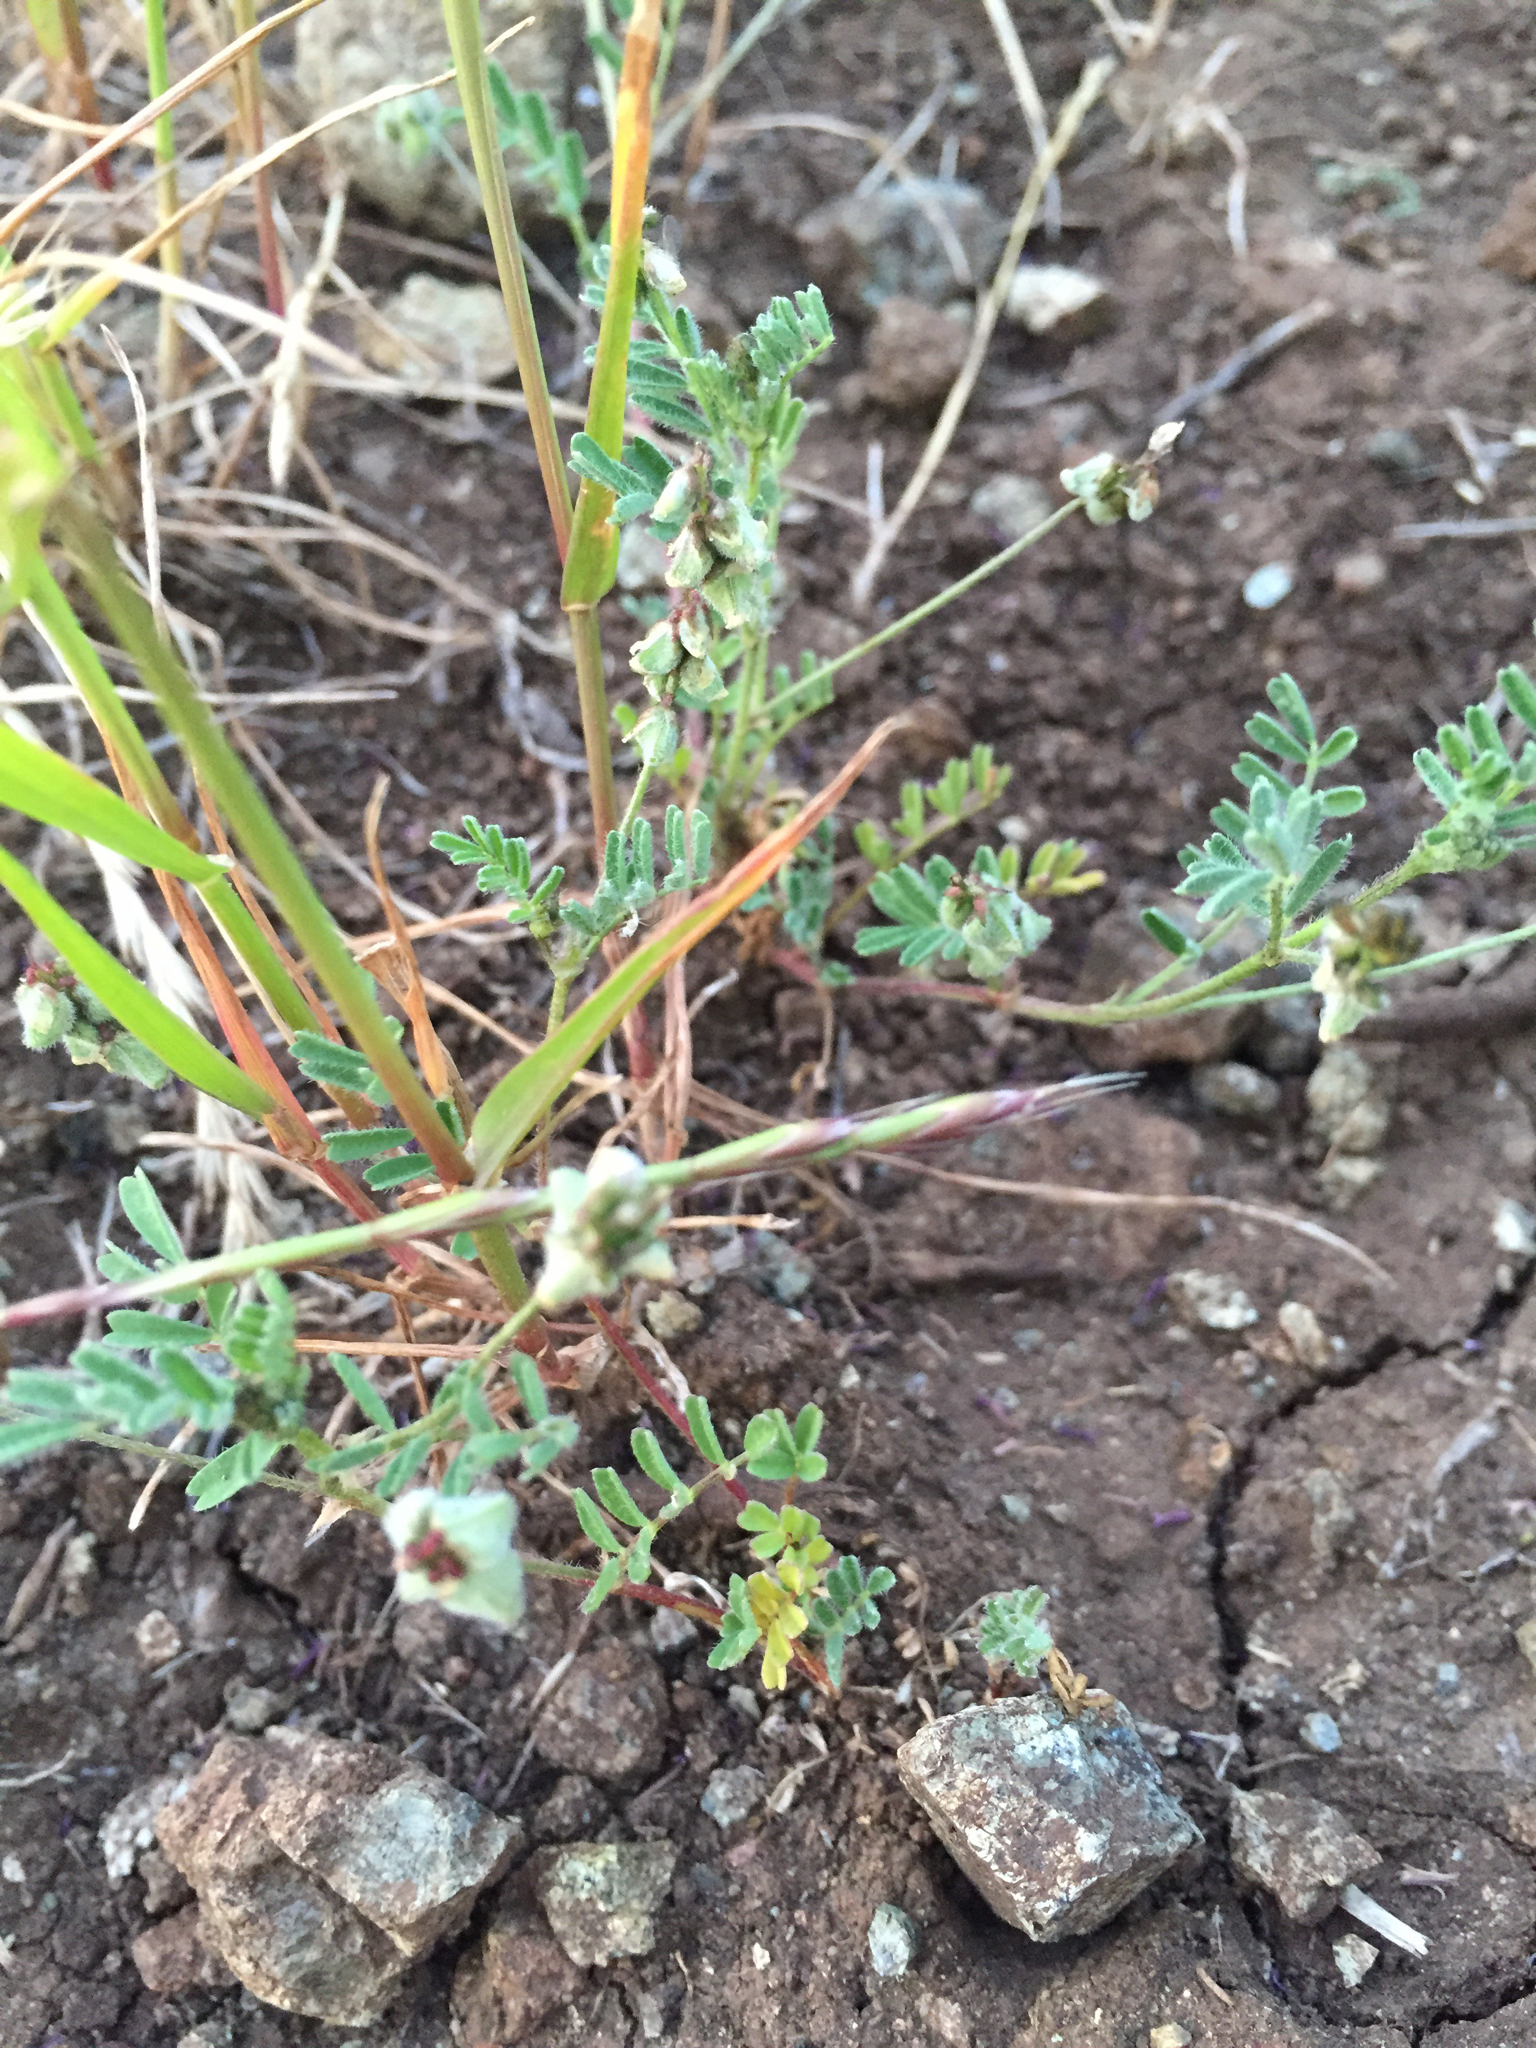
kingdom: Plantae
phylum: Tracheophyta
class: Magnoliopsida
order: Fabales
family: Fabaceae
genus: Astragalus
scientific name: Astragalus gambelianus
